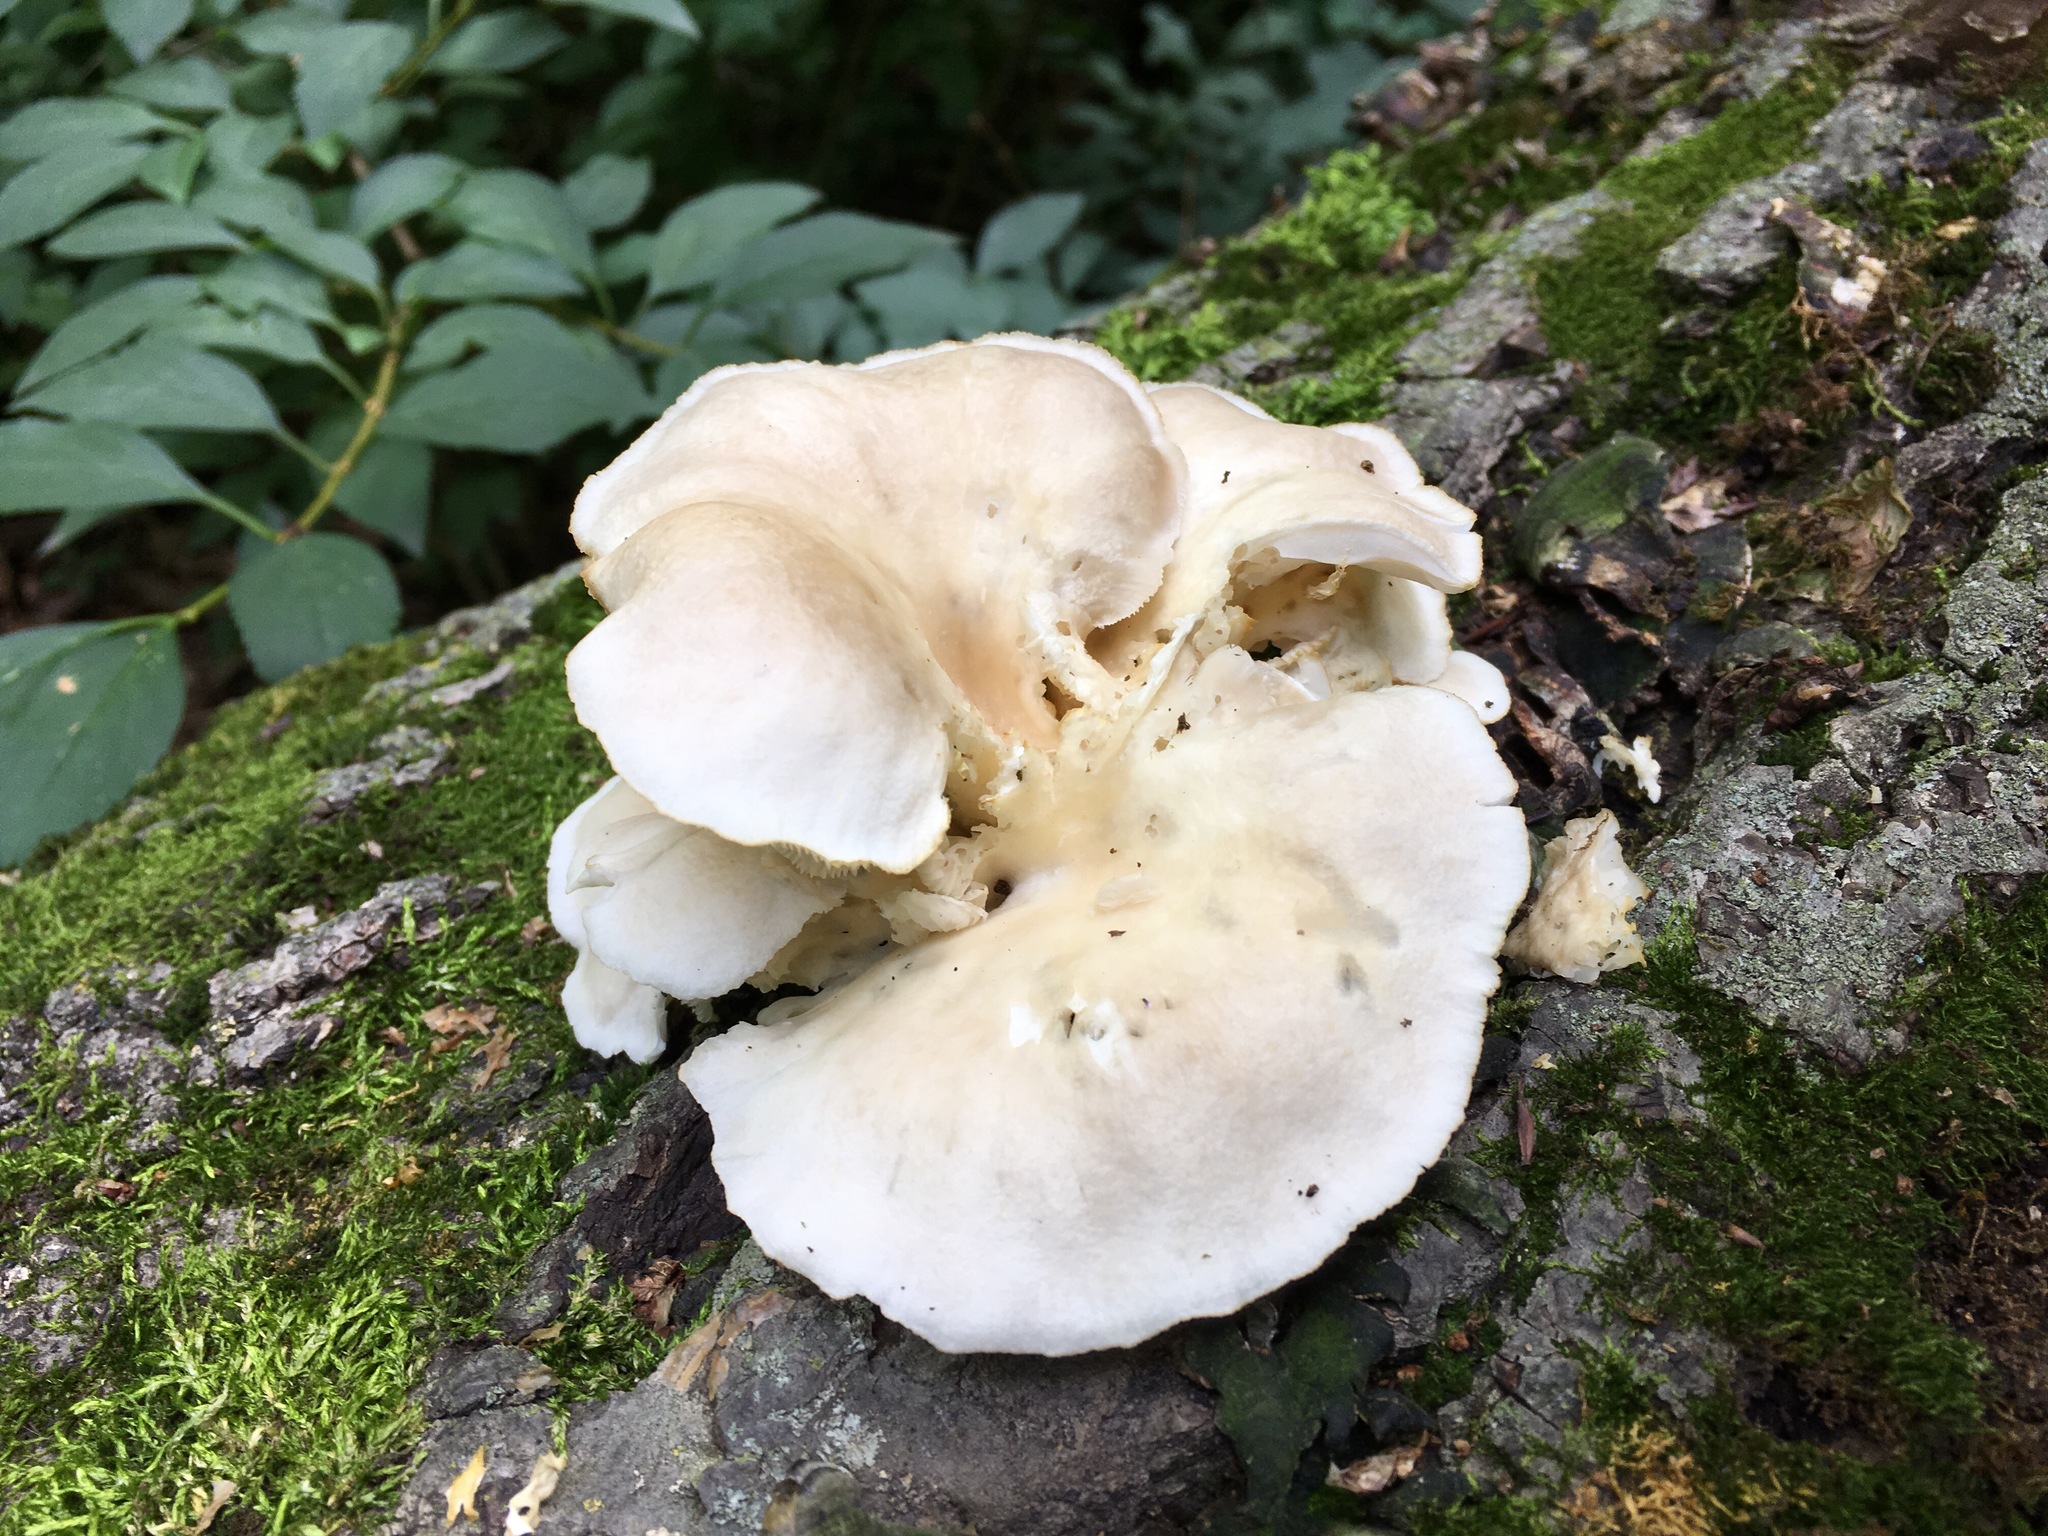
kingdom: Fungi
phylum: Basidiomycota
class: Agaricomycetes
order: Agaricales
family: Pleurotaceae
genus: Pleurotus
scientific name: Pleurotus ostreatus
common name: Oyster mushroom
